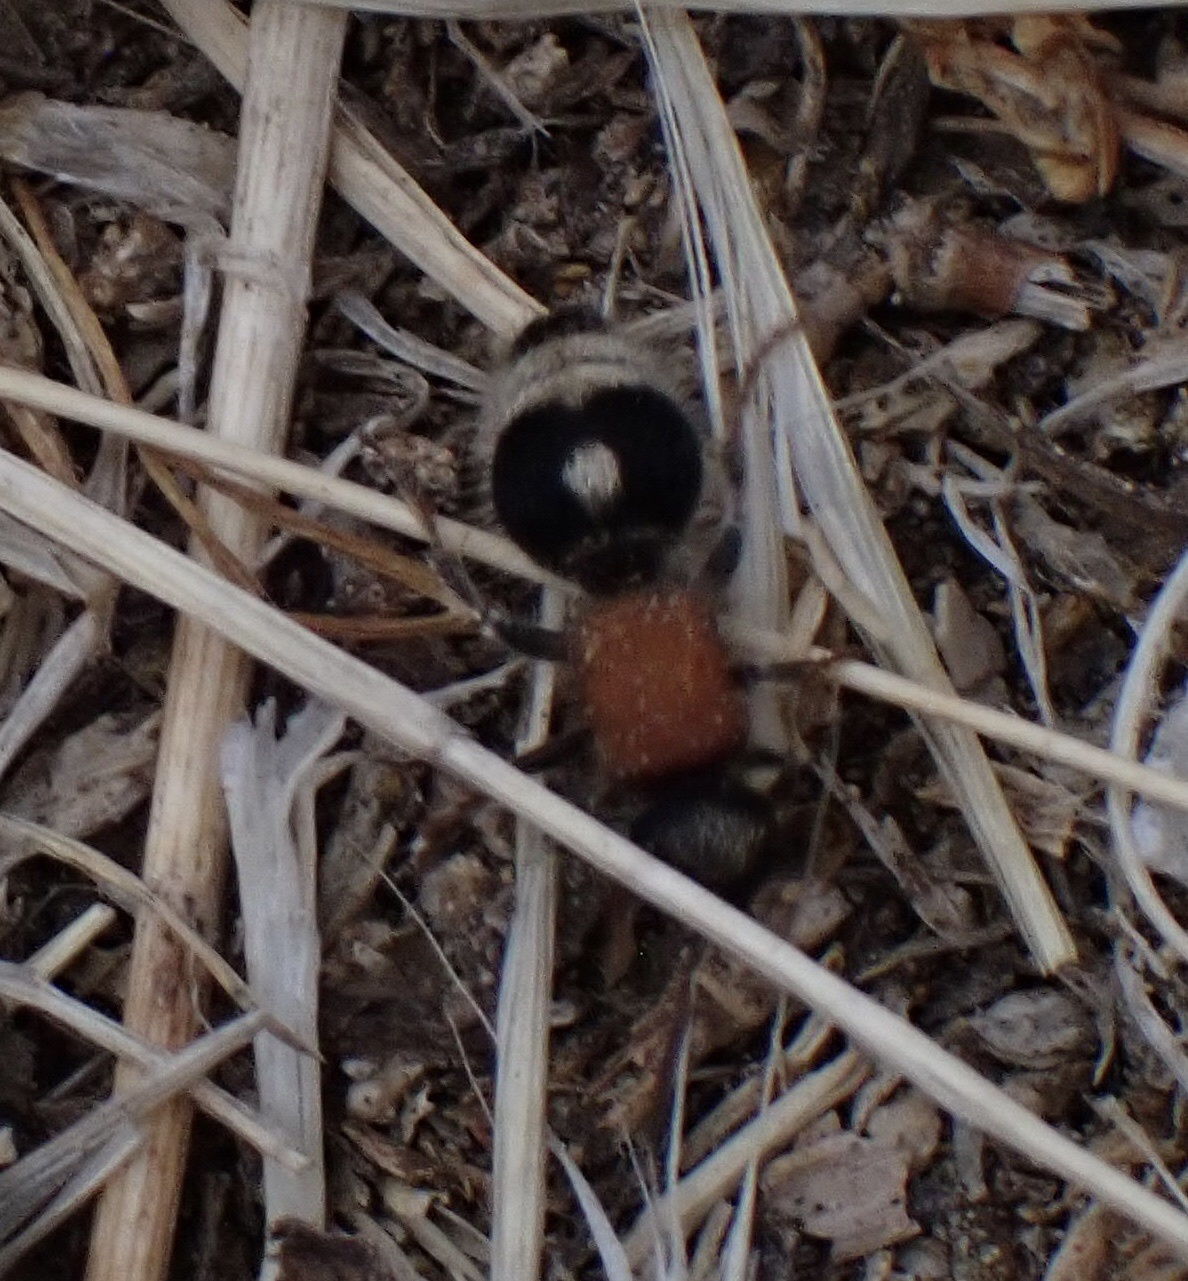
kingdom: Animalia
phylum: Arthropoda
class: Insecta
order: Hymenoptera
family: Mutillidae
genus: Nemka
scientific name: Nemka viduata
